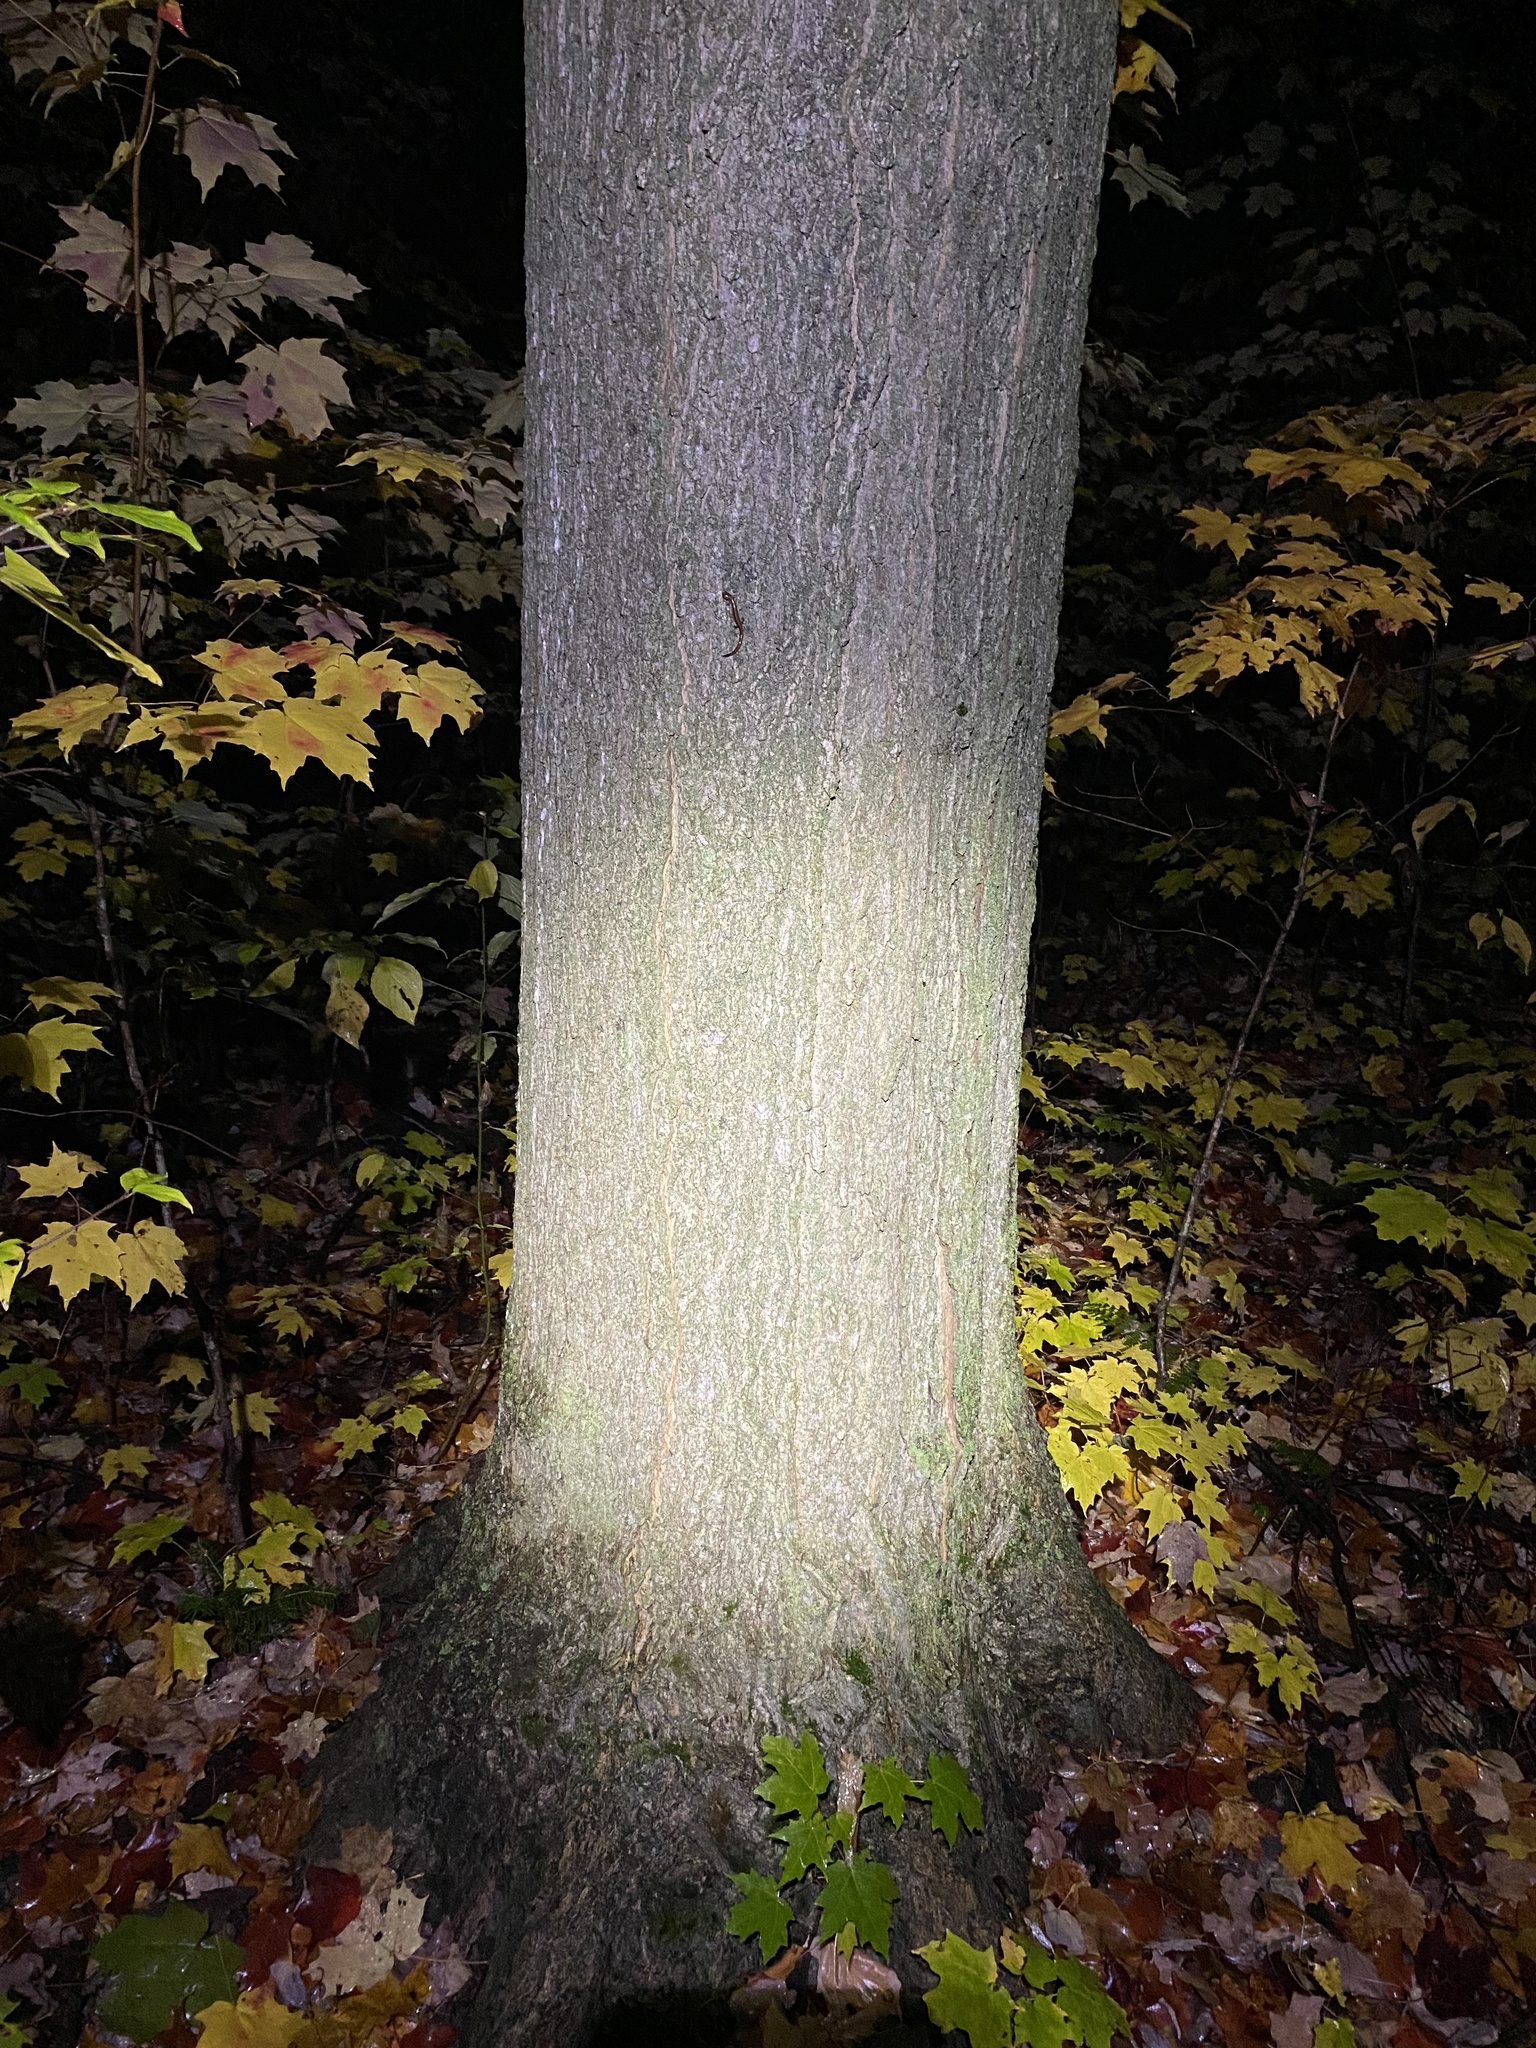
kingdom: Animalia
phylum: Chordata
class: Amphibia
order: Caudata
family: Plethodontidae
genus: Plethodon
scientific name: Plethodon cinereus
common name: Redback salamander
